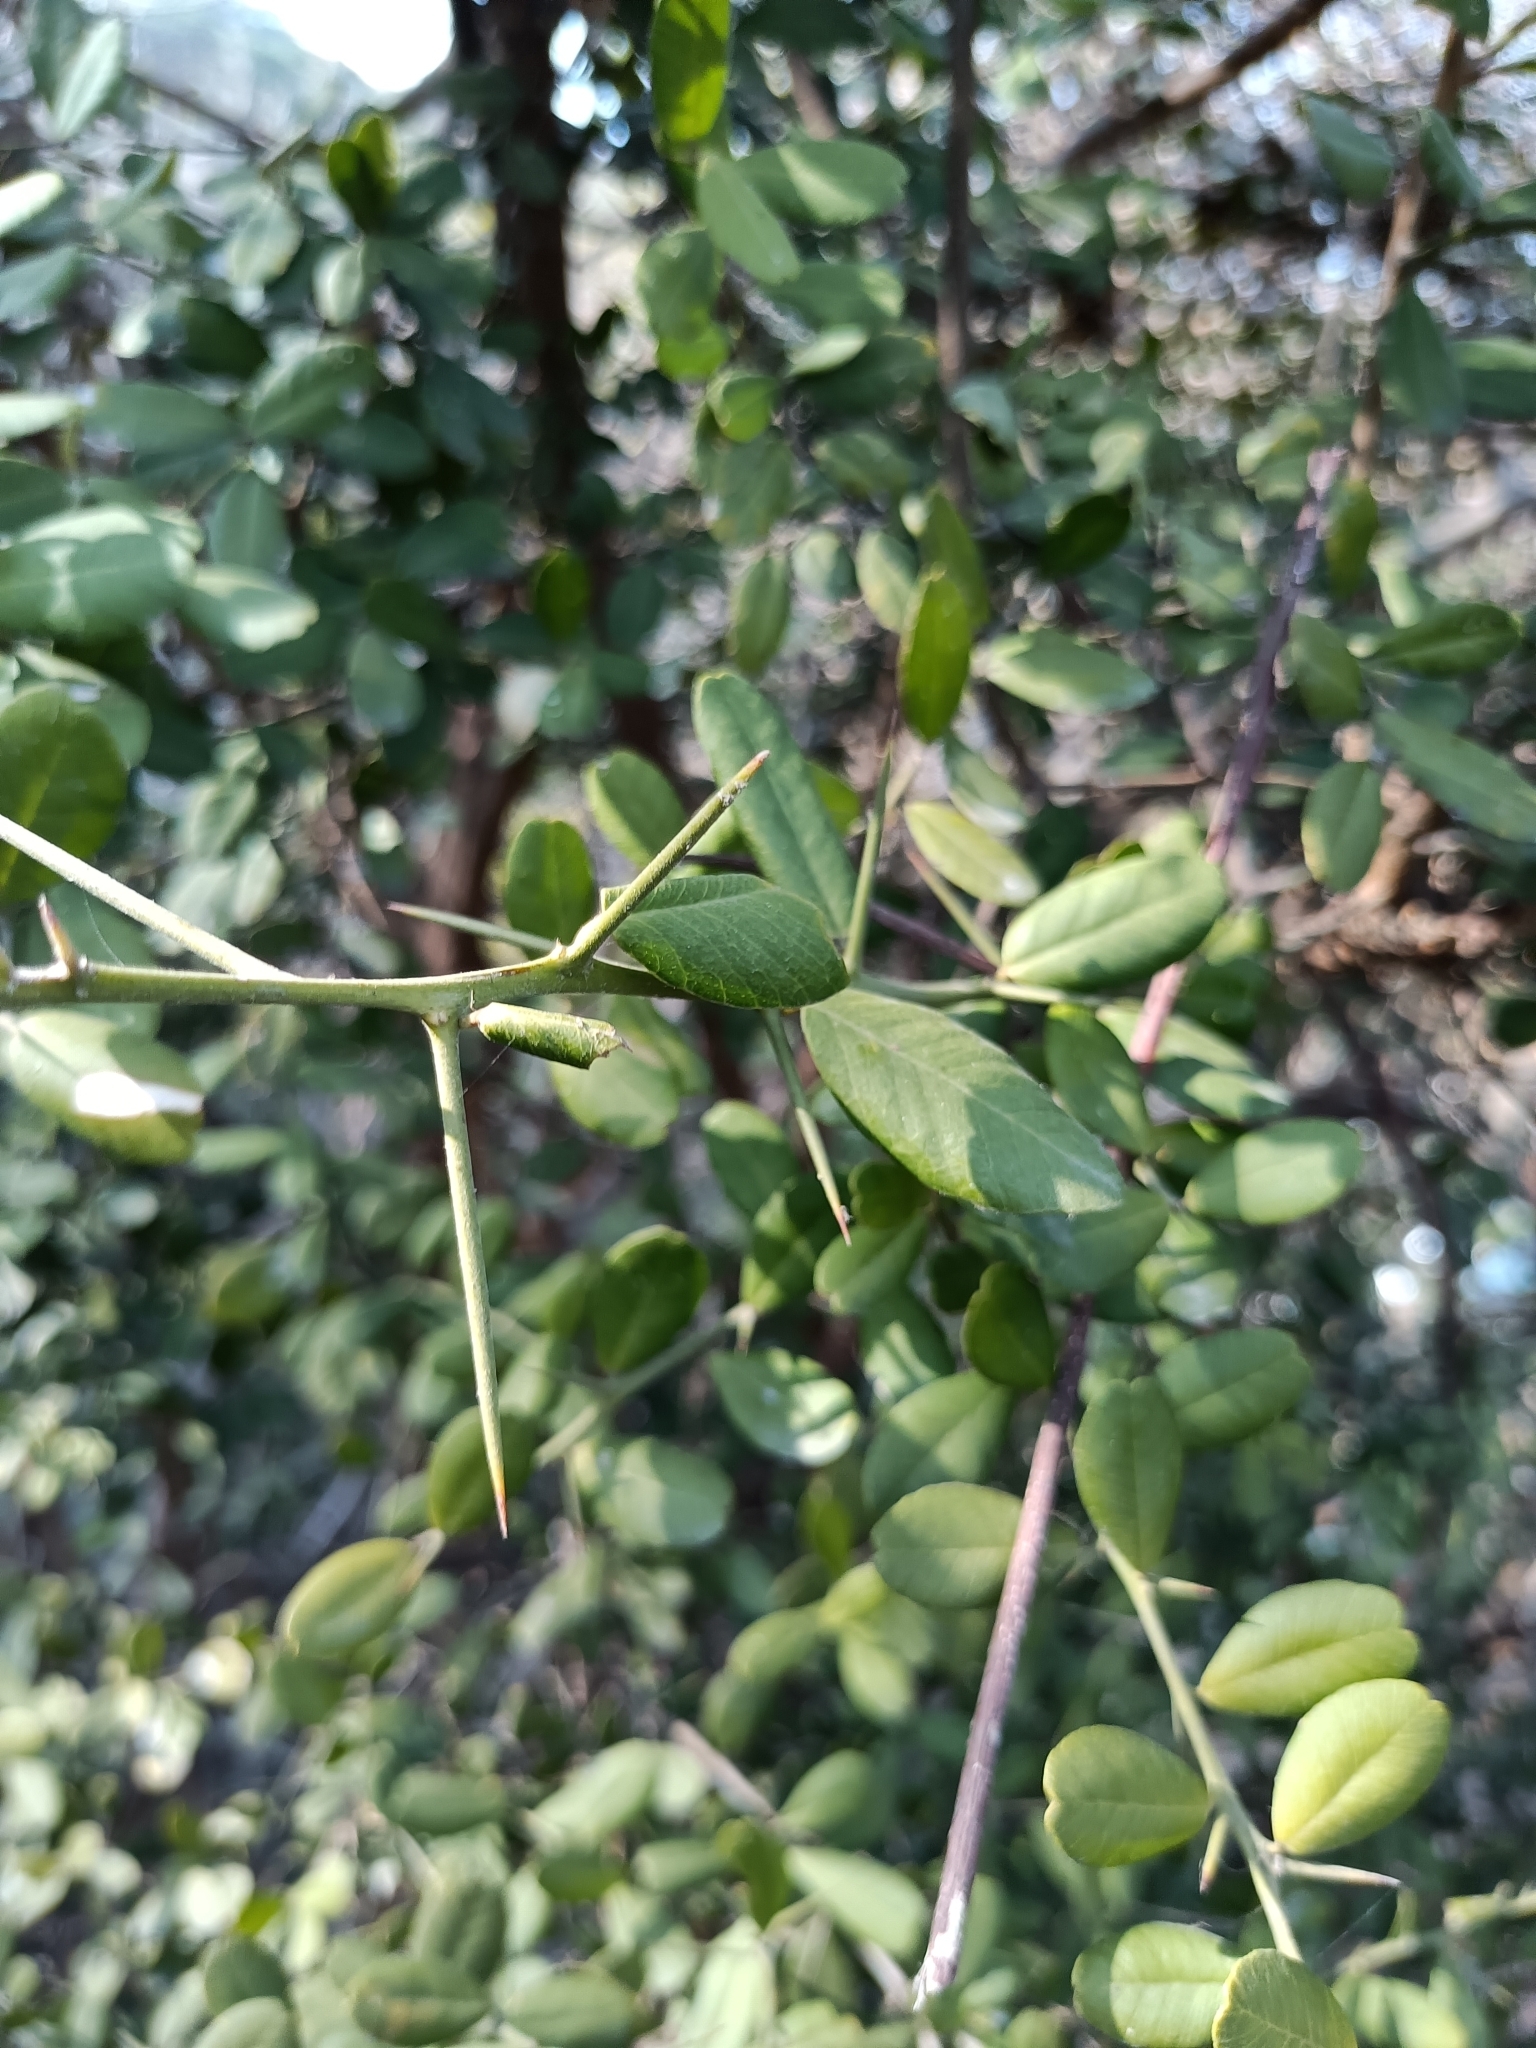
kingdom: Plantae
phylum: Tracheophyta
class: Magnoliopsida
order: Sapindales
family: Rutaceae
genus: Atalantia
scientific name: Atalantia buxifolia
